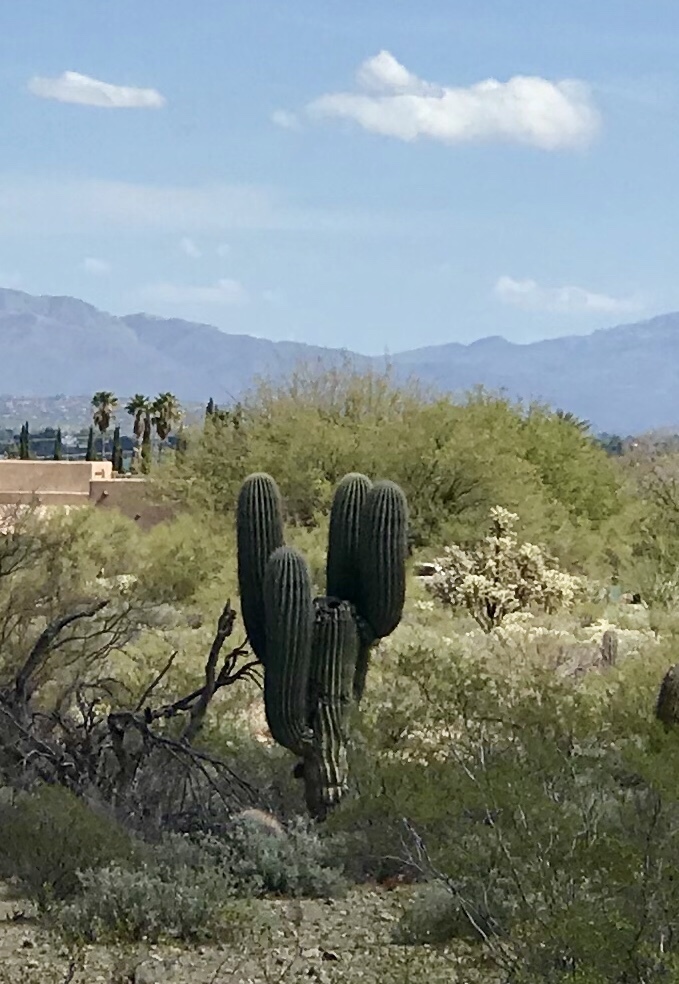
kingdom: Plantae
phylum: Tracheophyta
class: Magnoliopsida
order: Caryophyllales
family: Cactaceae
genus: Carnegiea
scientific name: Carnegiea gigantea
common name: Saguaro
